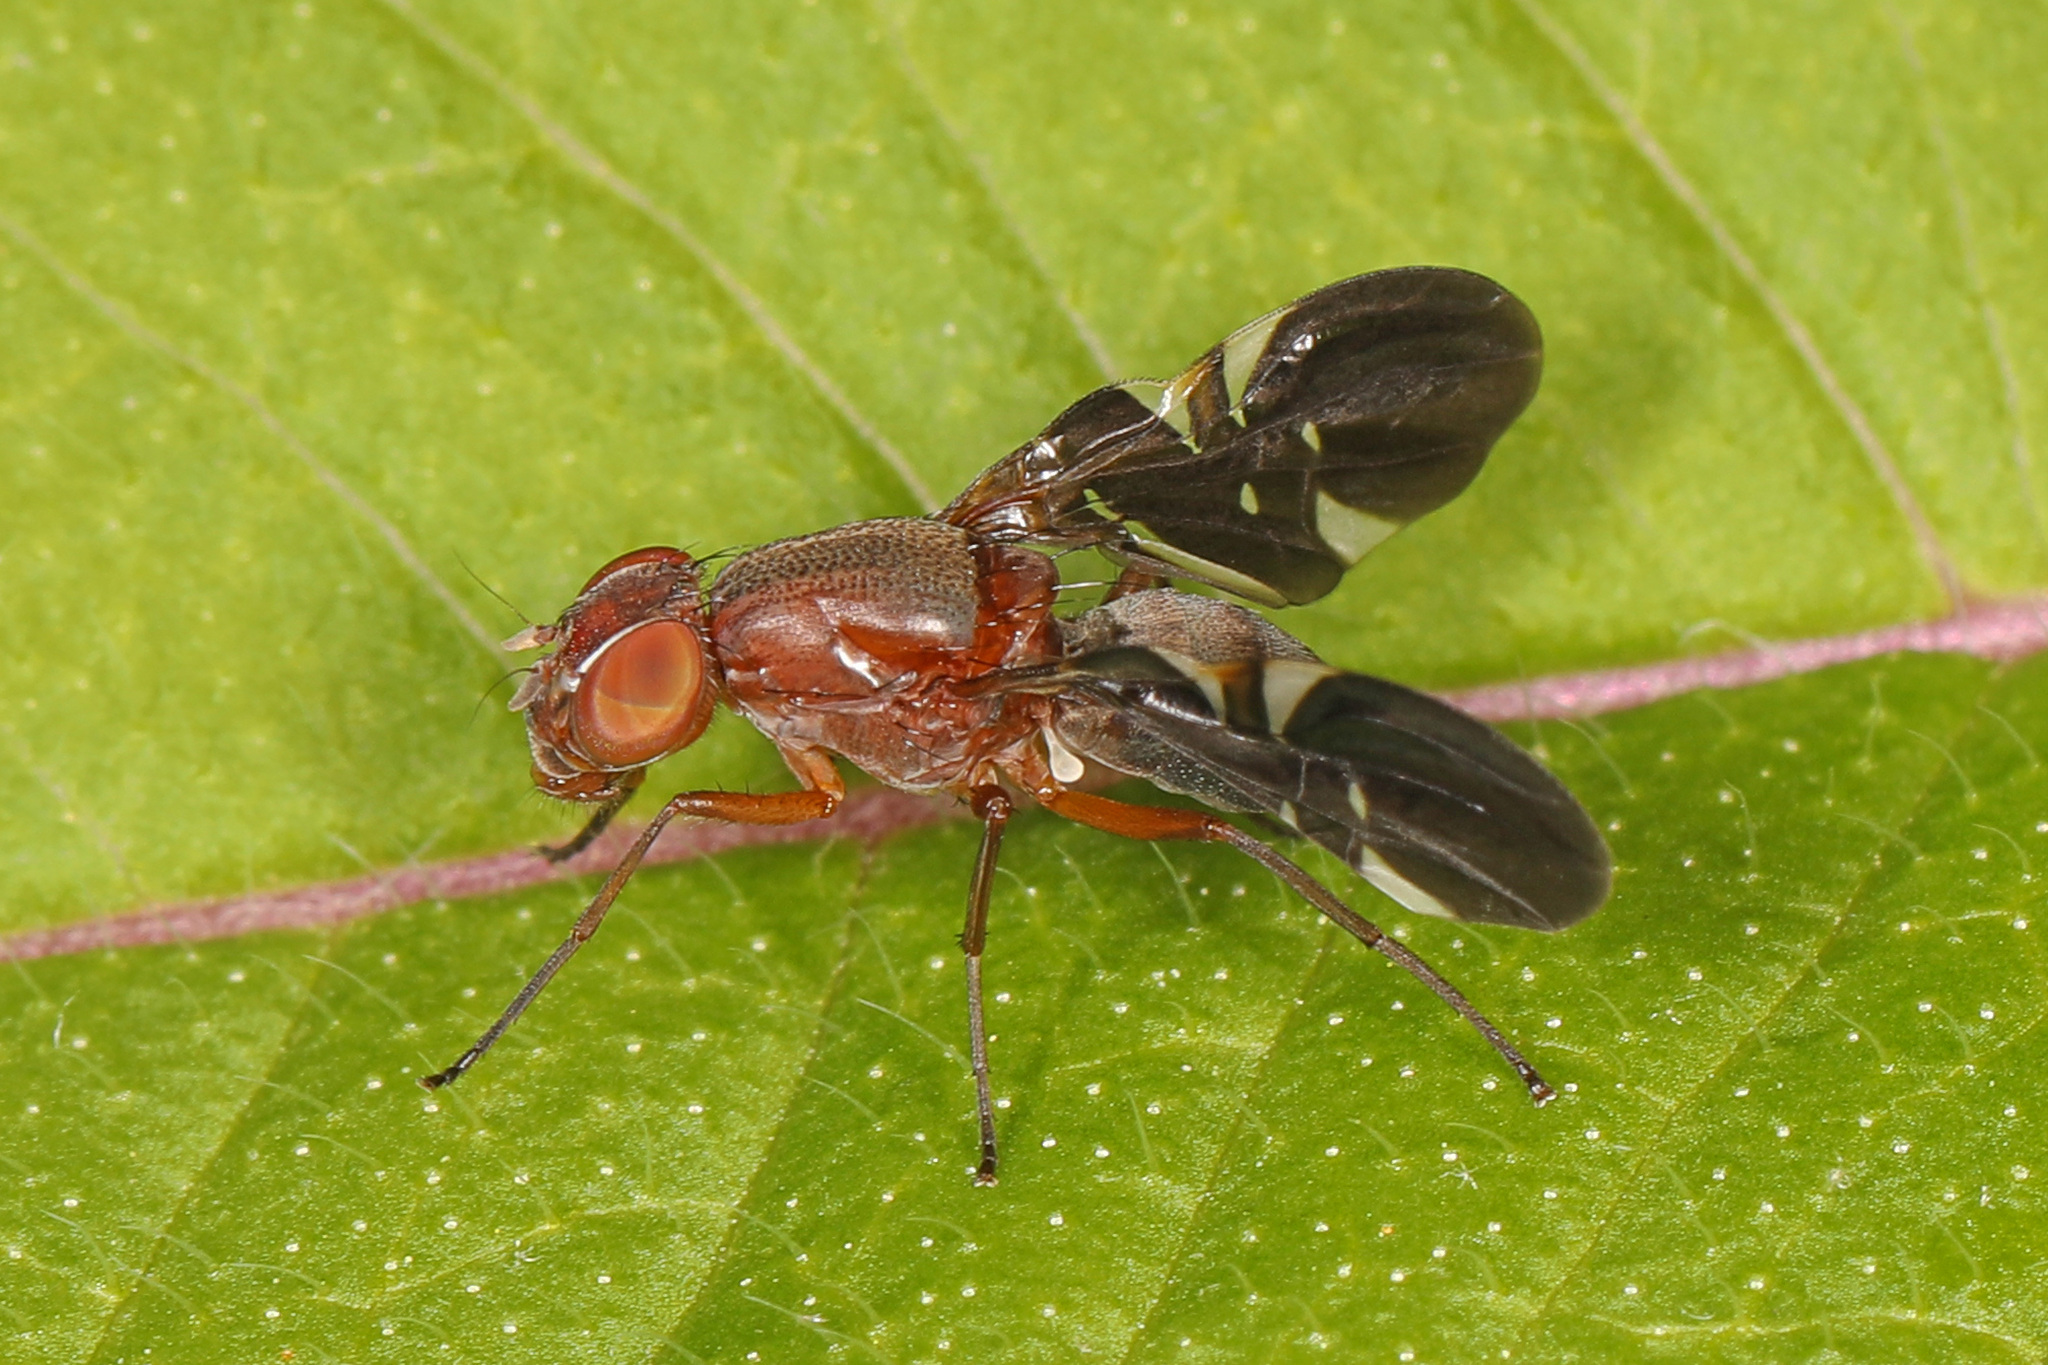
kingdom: Animalia
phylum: Arthropoda
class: Insecta
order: Diptera
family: Ulidiidae
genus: Delphinia
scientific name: Delphinia picta
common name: Common picture-winged fly
